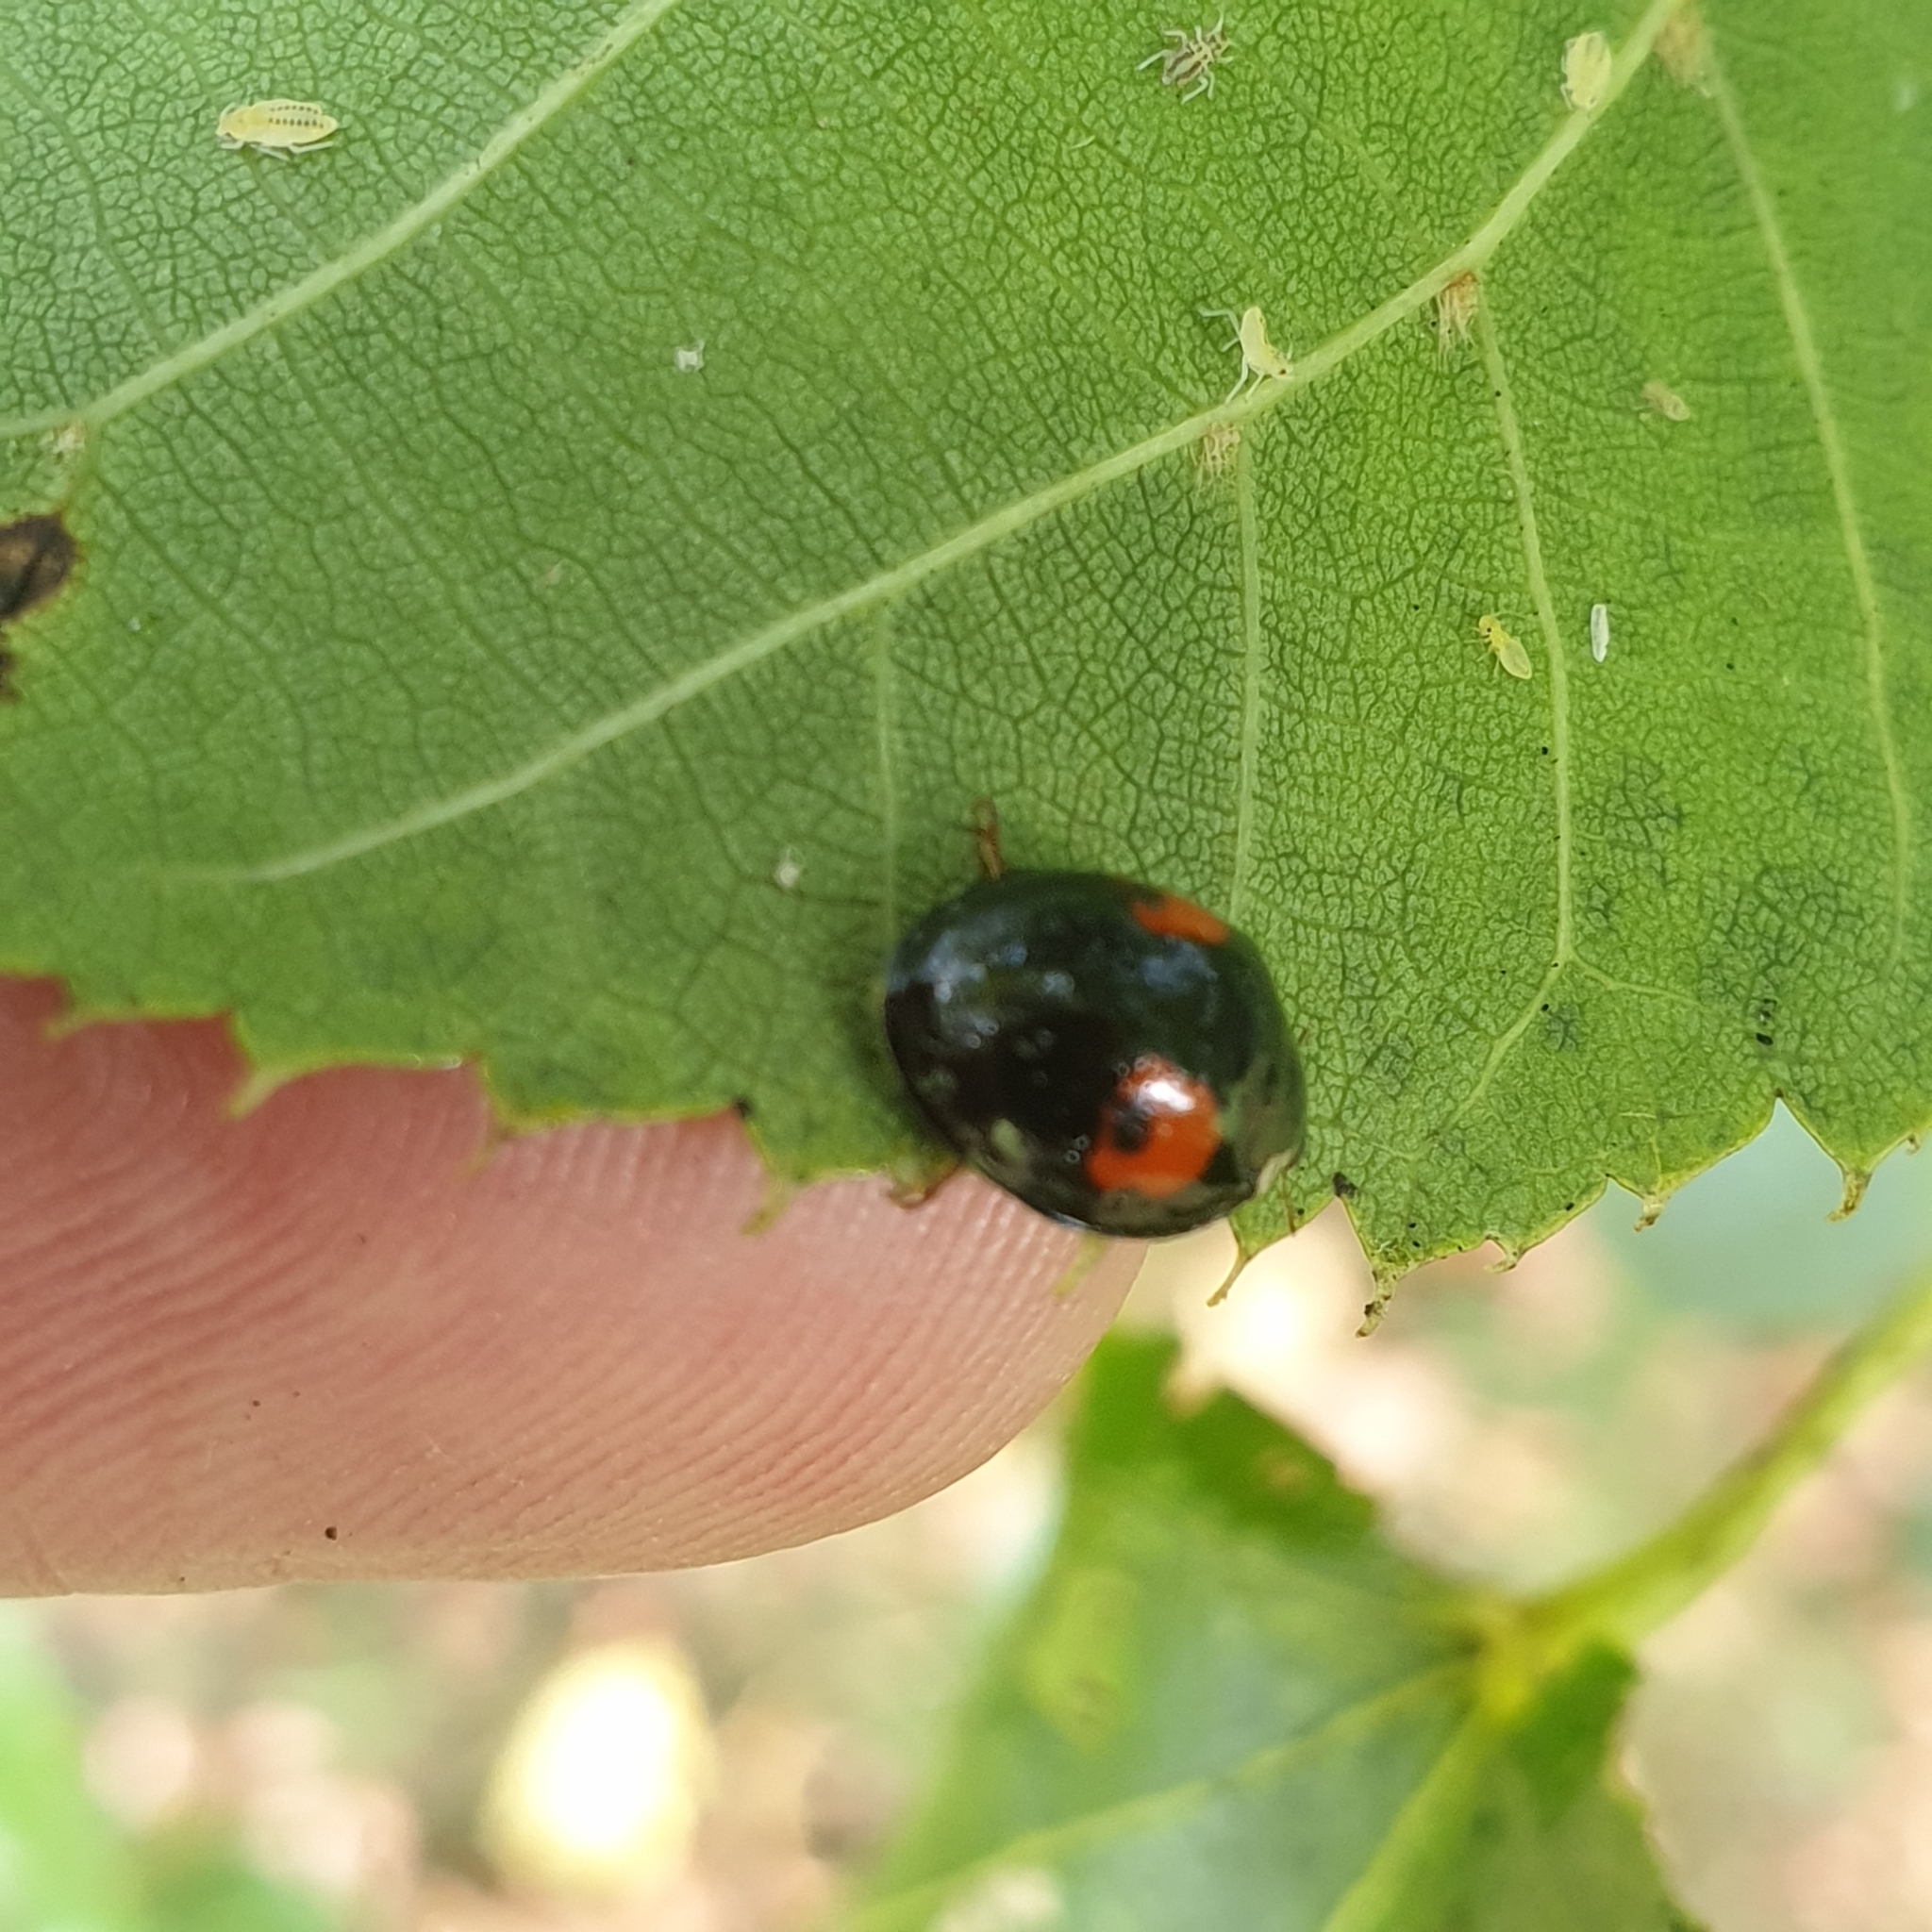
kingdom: Animalia
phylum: Arthropoda
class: Insecta
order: Coleoptera
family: Coccinellidae
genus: Harmonia
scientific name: Harmonia axyridis
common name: Harlequin ladybird
